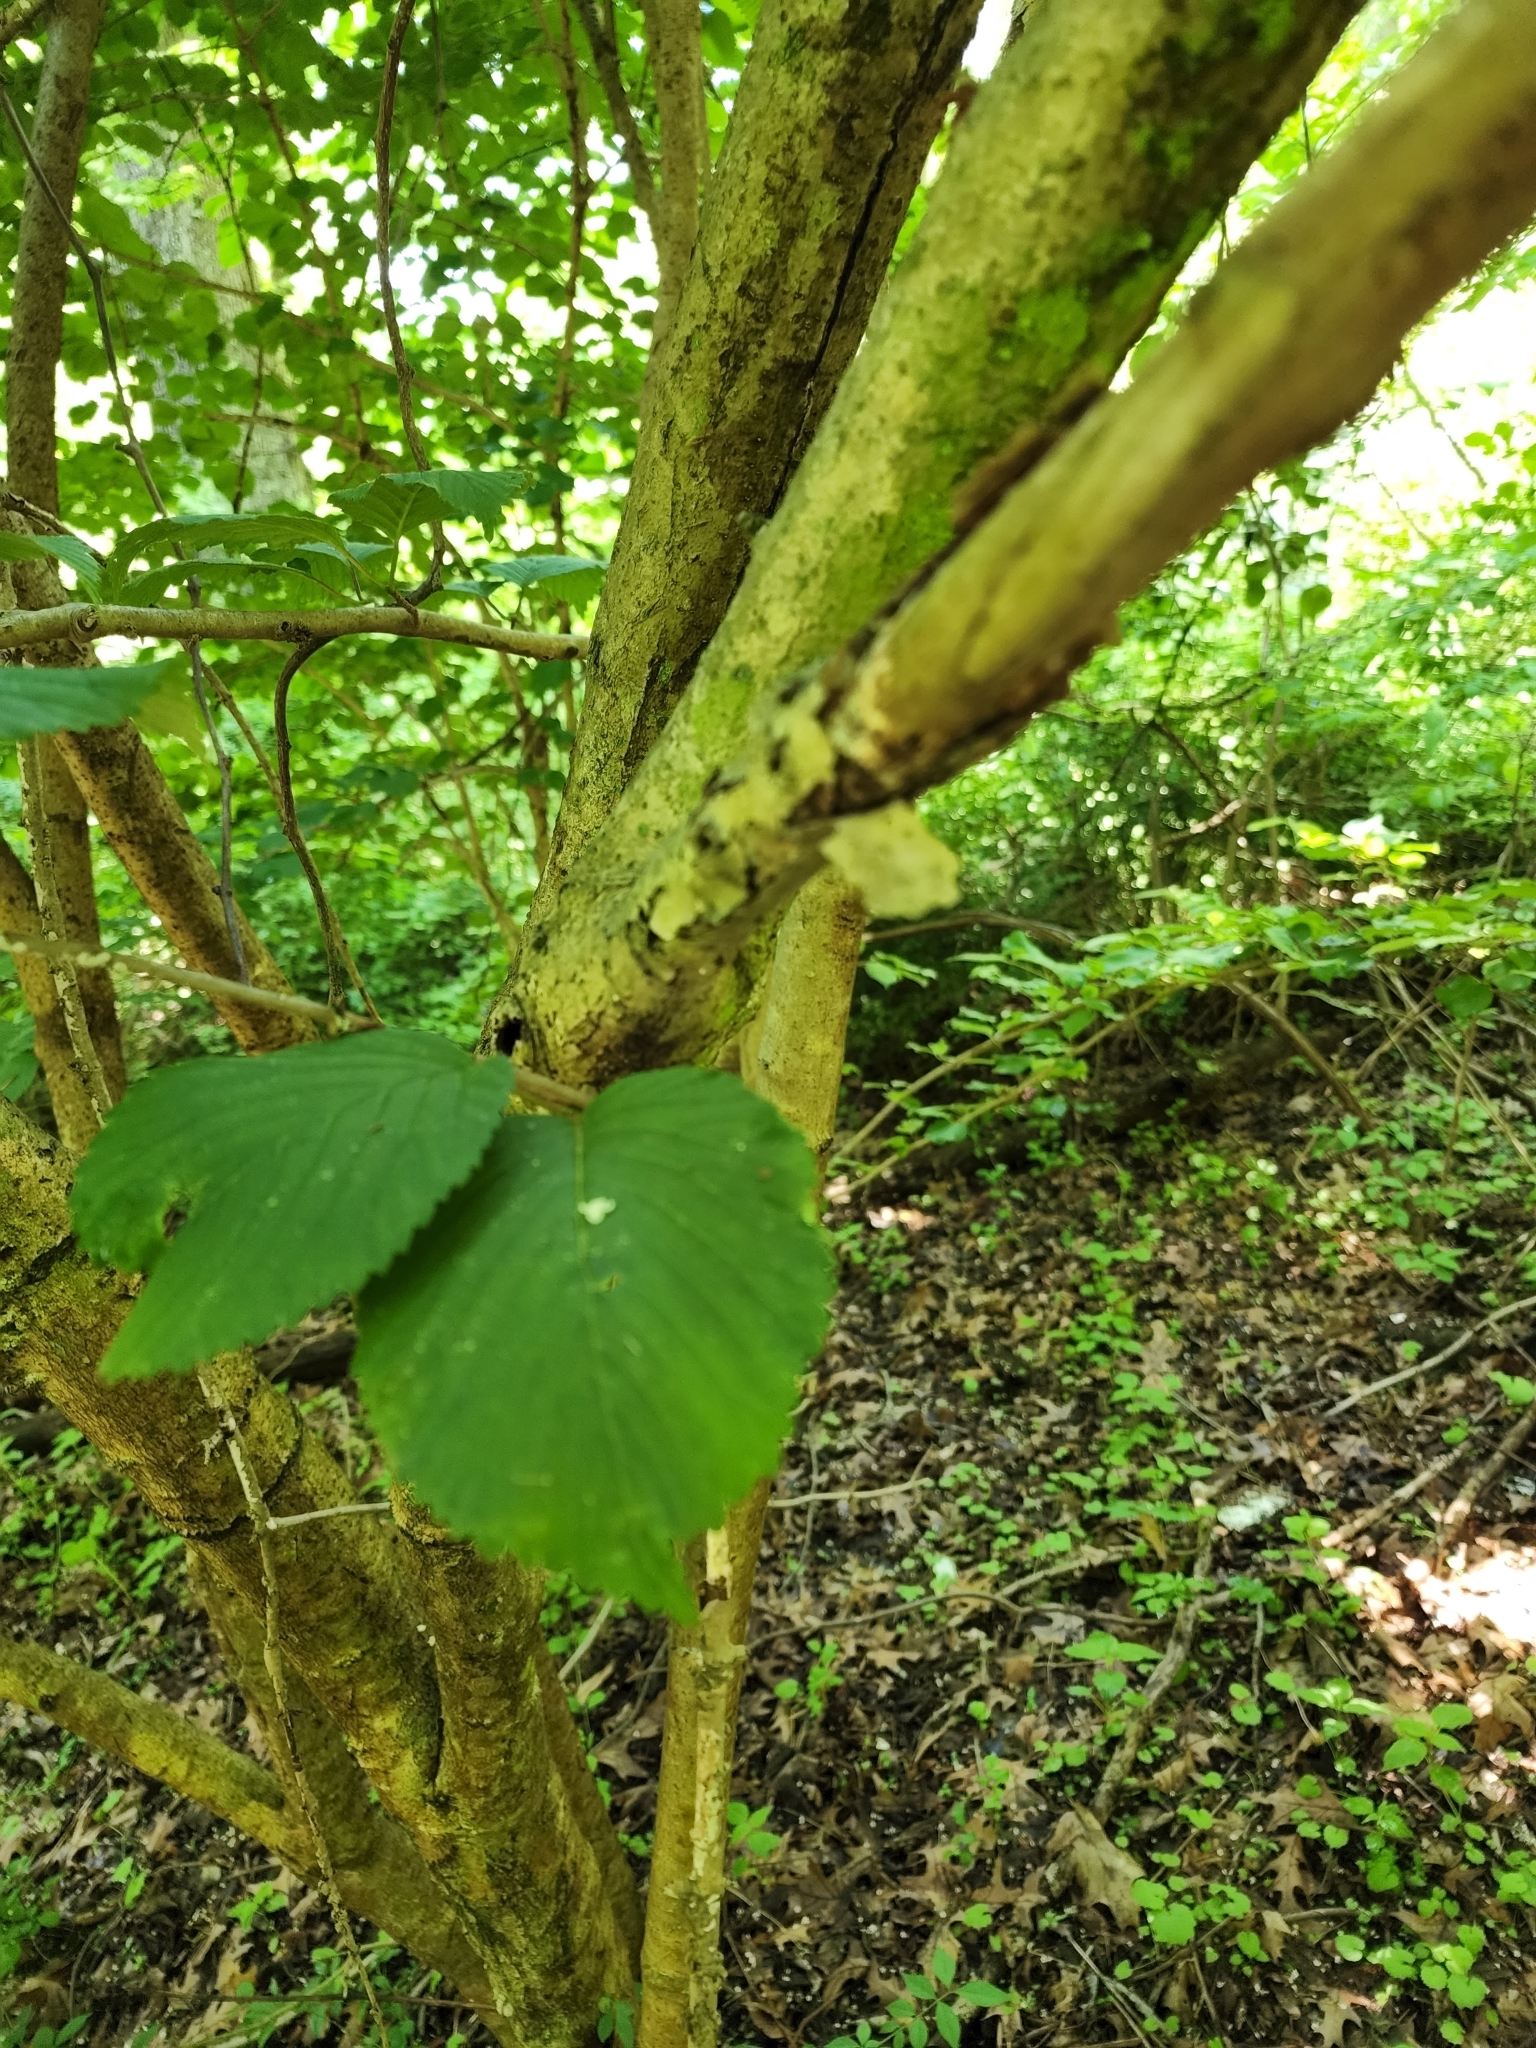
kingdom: Plantae
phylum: Tracheophyta
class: Magnoliopsida
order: Dipsacales
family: Viburnaceae
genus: Viburnum
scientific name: Viburnum plicatum
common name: Japanese snowball
